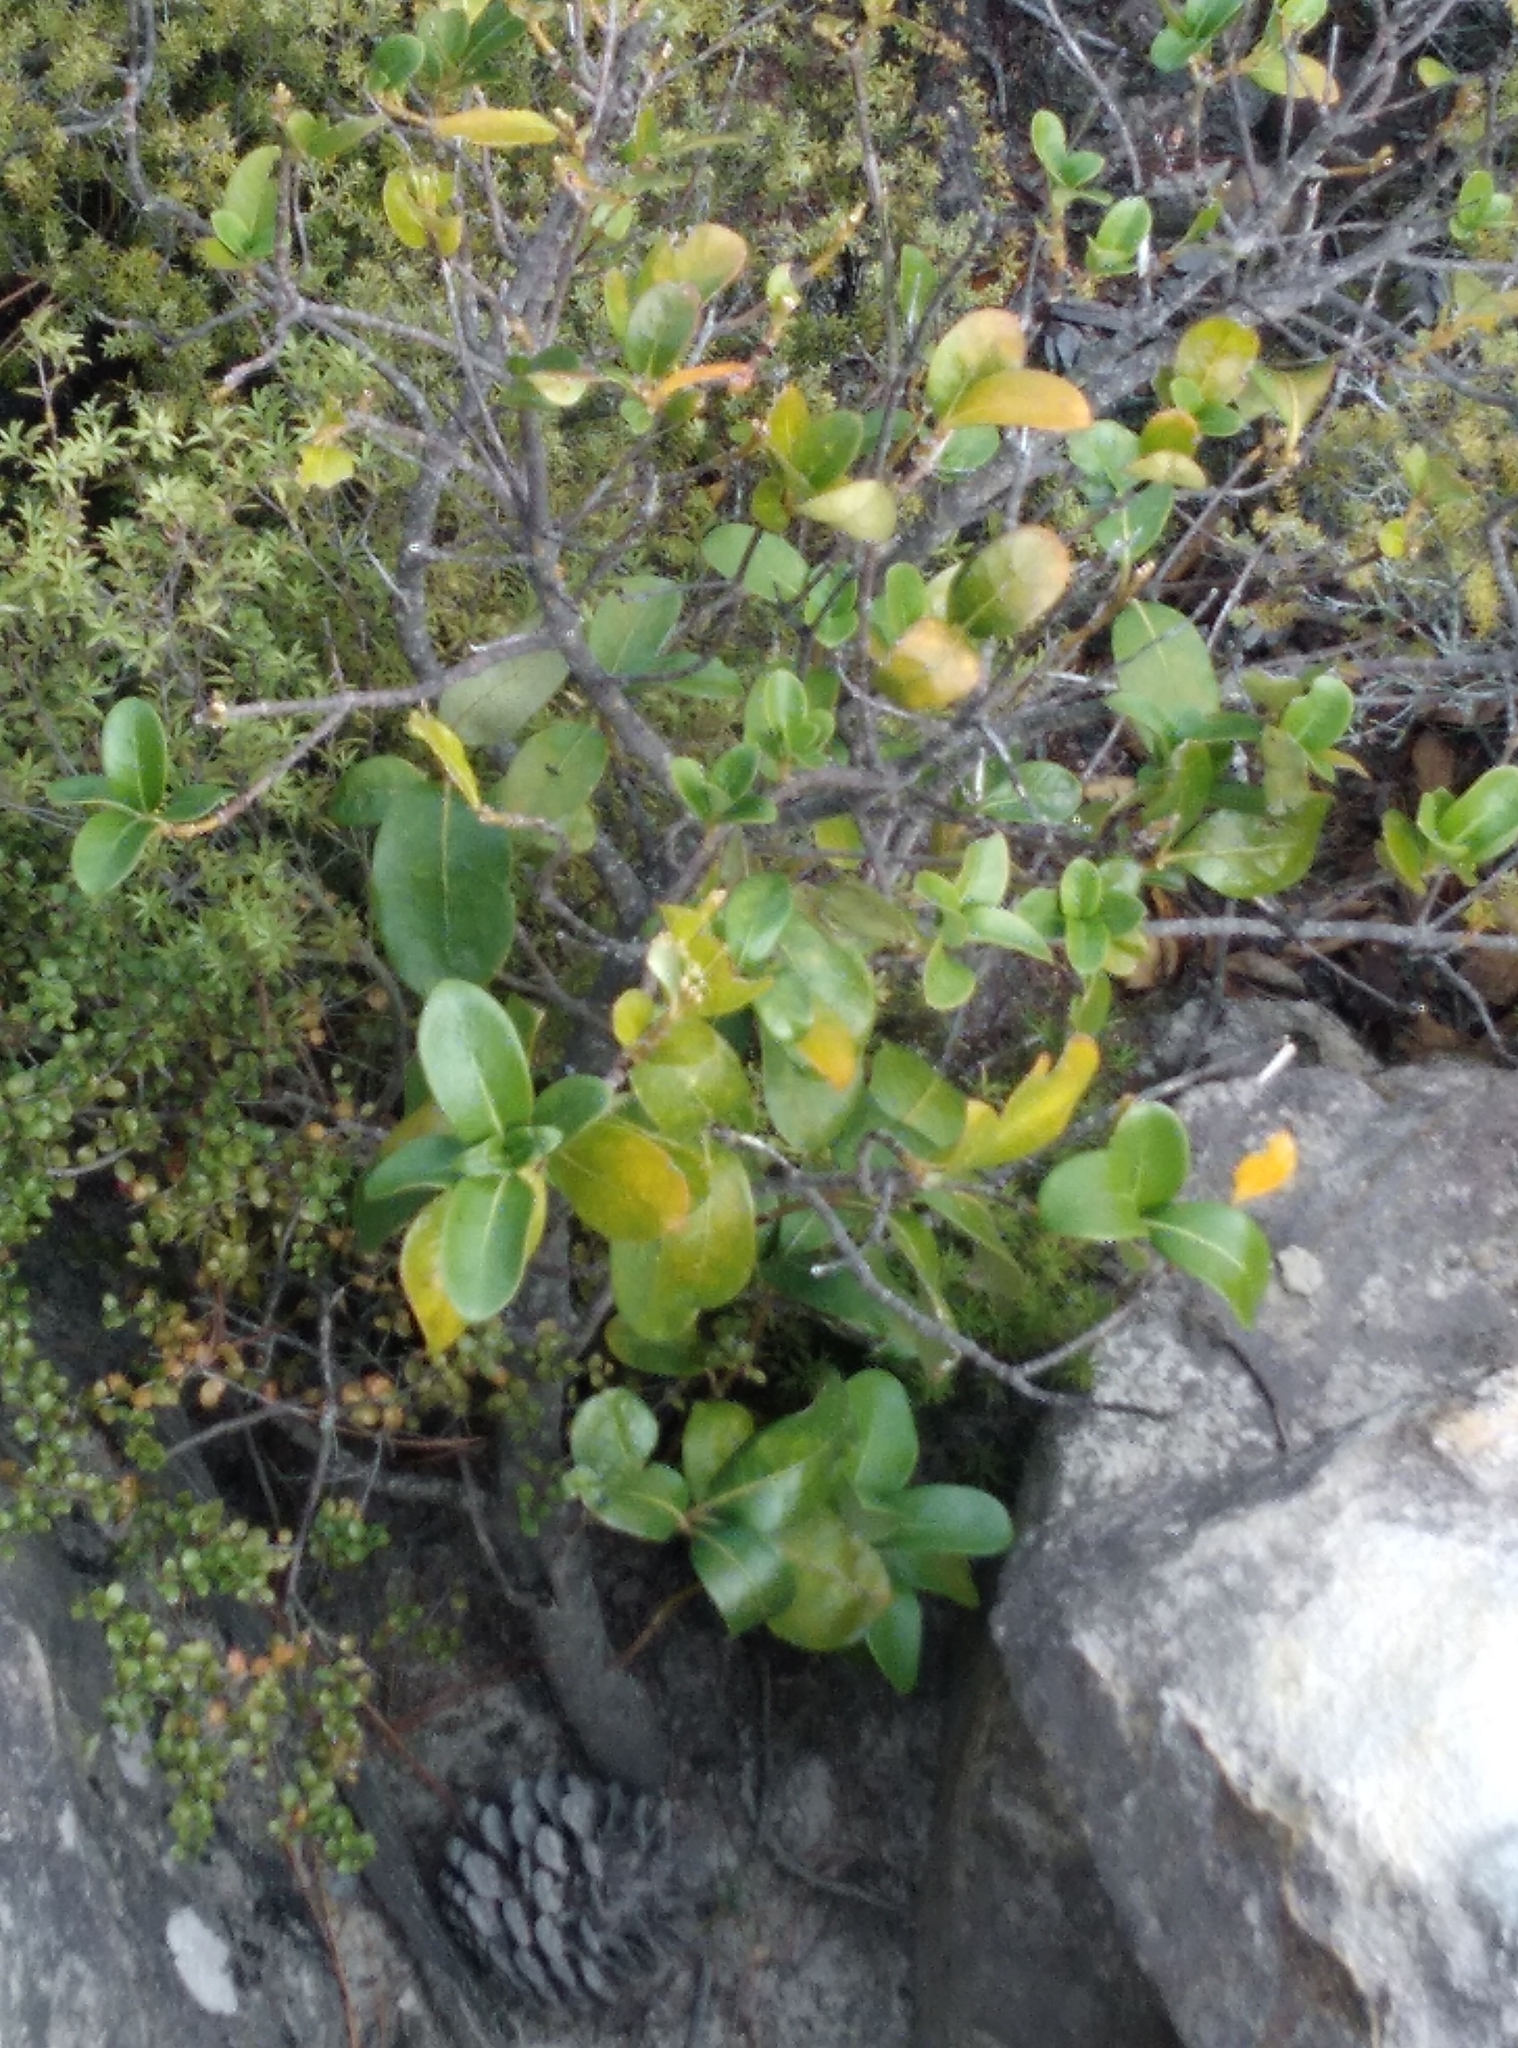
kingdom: Plantae
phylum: Tracheophyta
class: Magnoliopsida
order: Gentianales
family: Rubiaceae
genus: Coprosma
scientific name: Coprosma lucida
